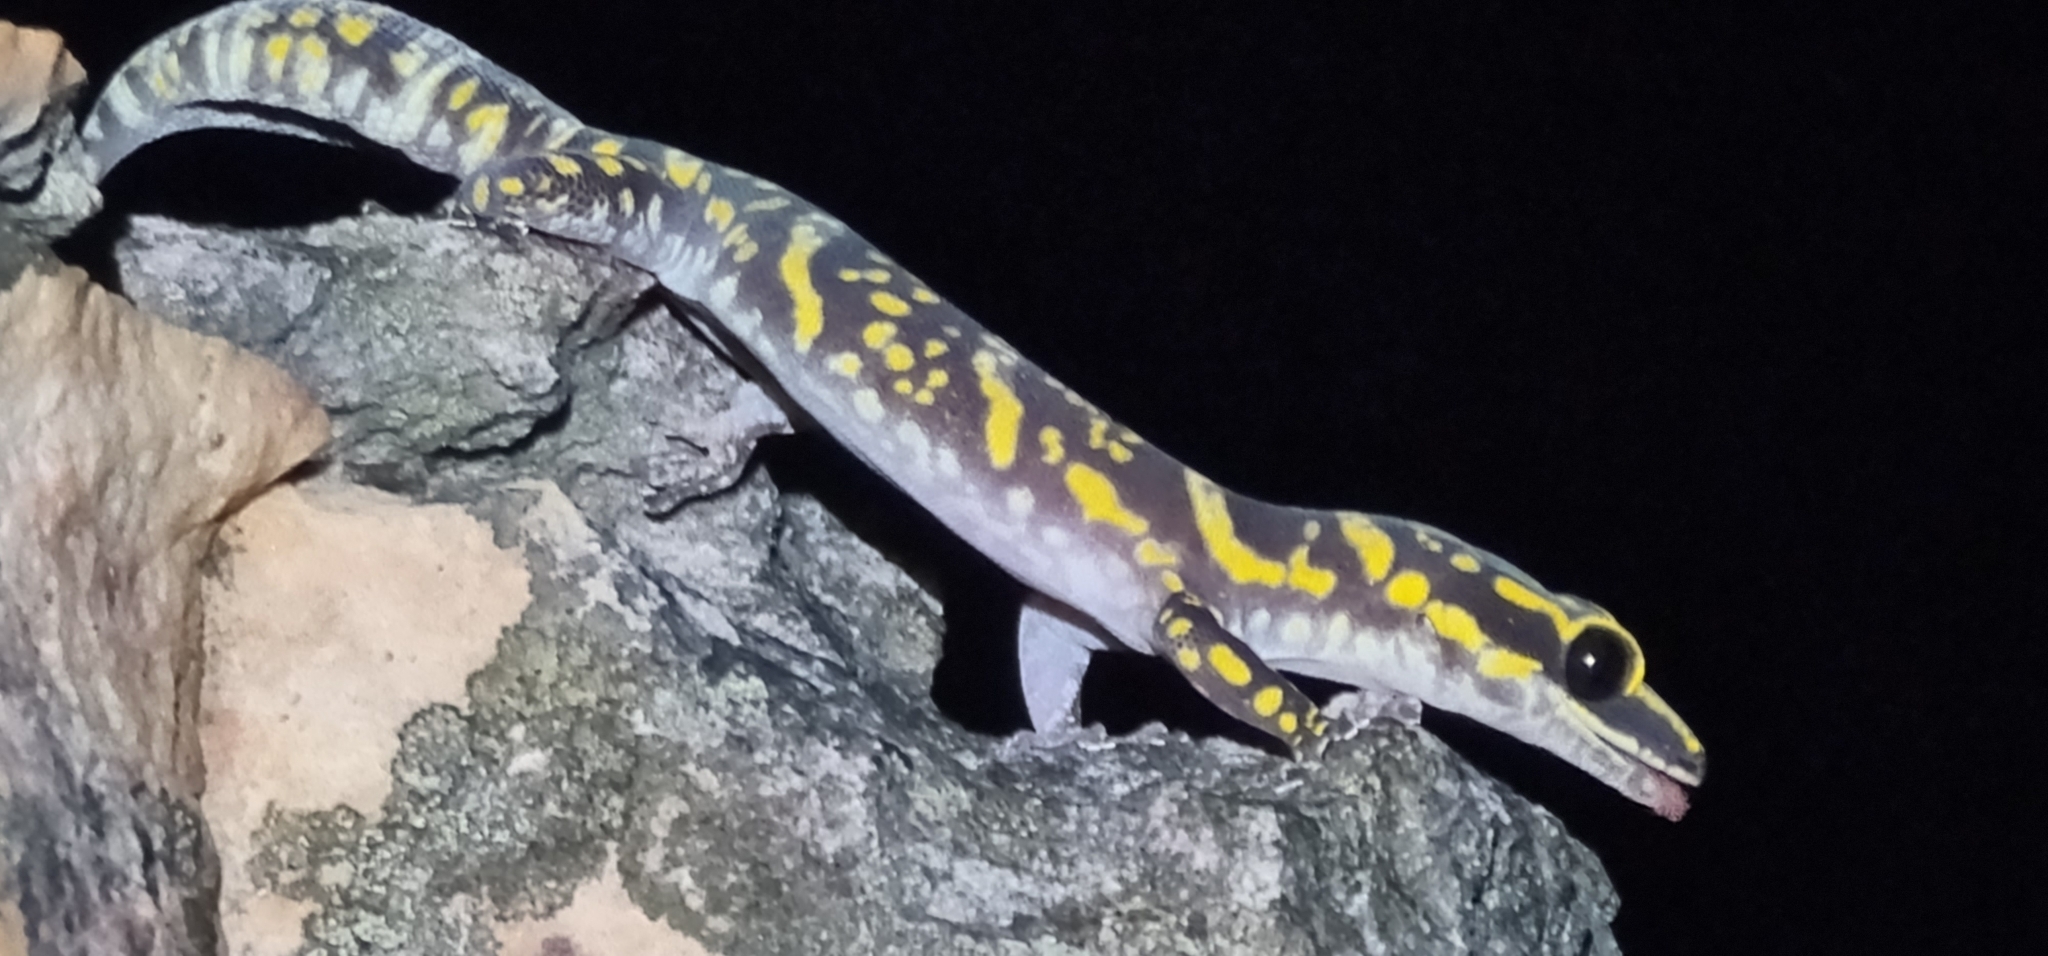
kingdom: Animalia
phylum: Chordata
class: Squamata
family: Diplodactylidae
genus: Oedura
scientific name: Oedura marmorata
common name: Marbled velvet gecko
